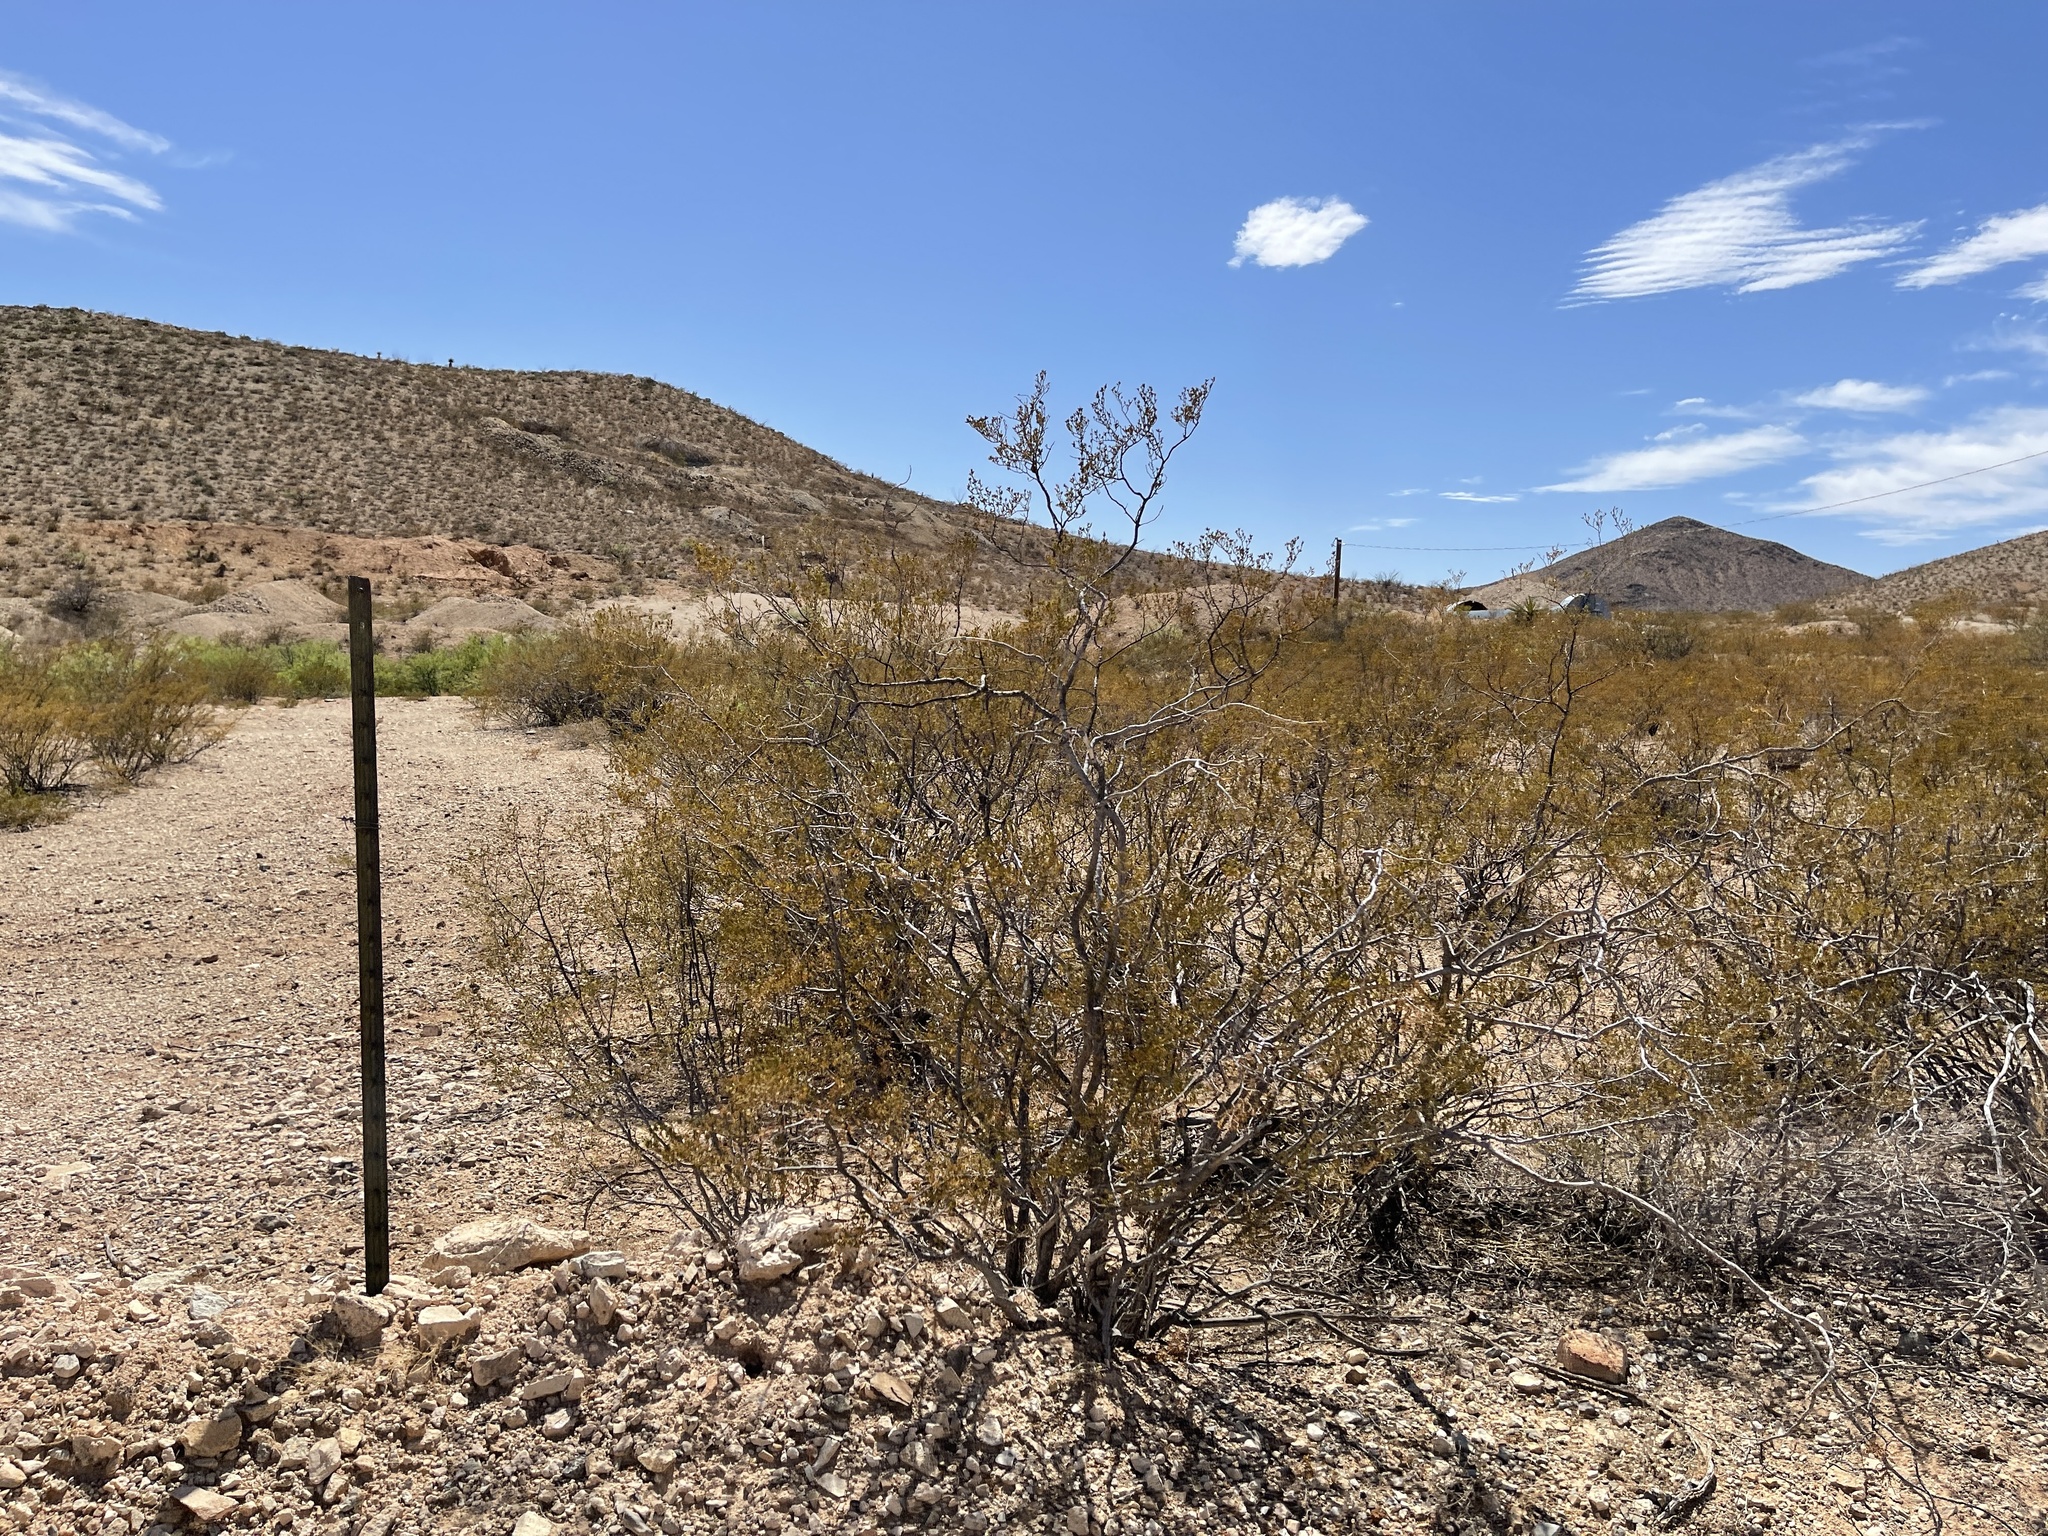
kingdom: Plantae
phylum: Tracheophyta
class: Magnoliopsida
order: Zygophyllales
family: Zygophyllaceae
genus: Larrea
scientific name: Larrea tridentata
